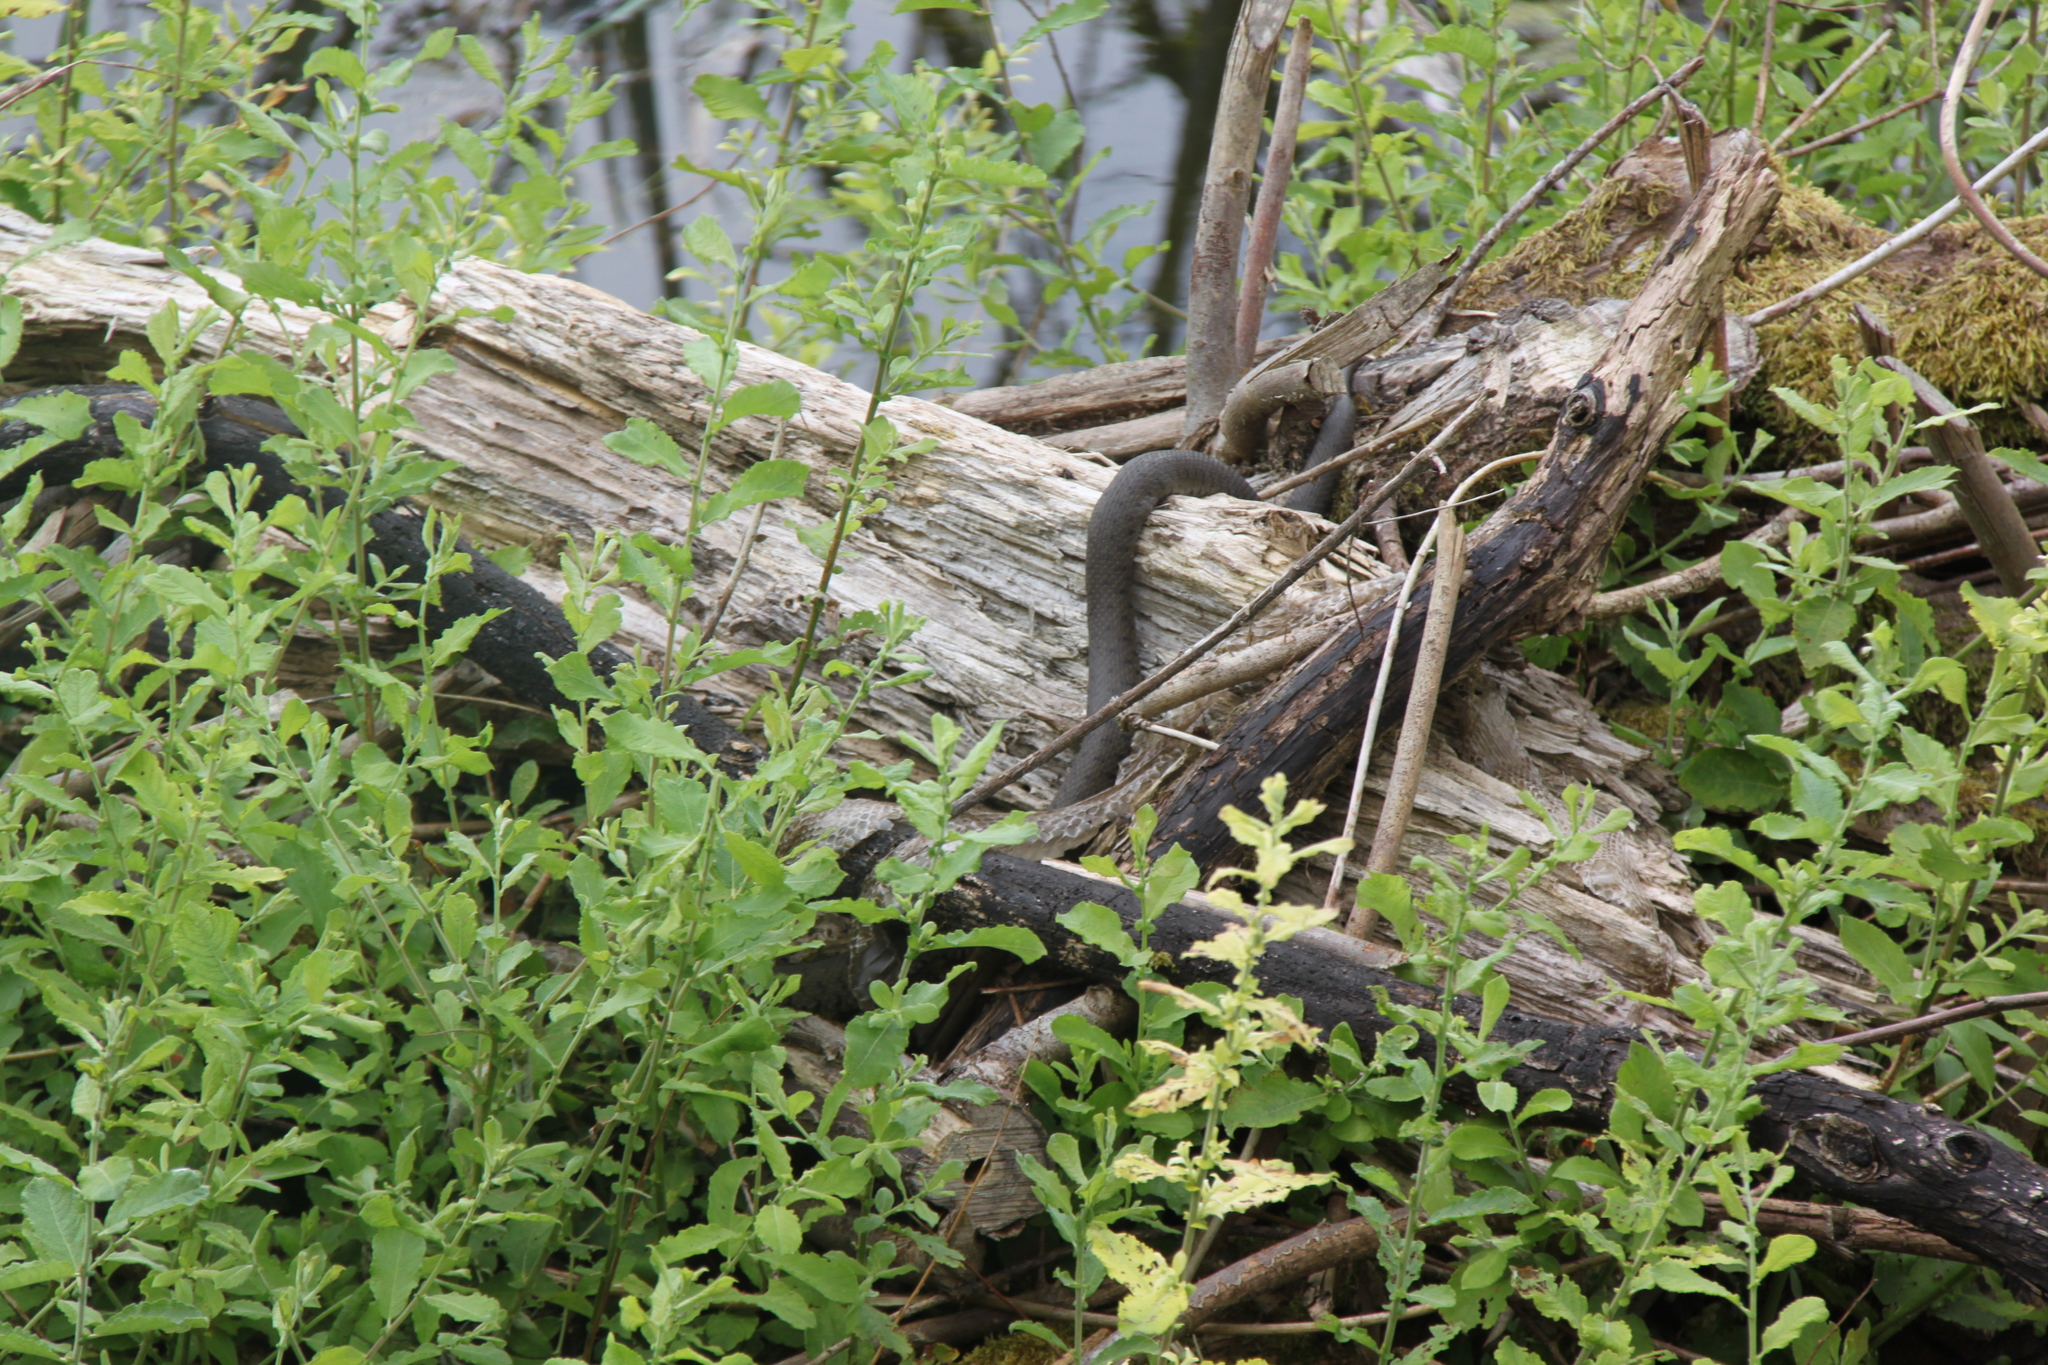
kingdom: Animalia
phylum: Chordata
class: Squamata
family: Colubridae
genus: Natrix
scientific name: Natrix helvetica
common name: Banded grass snake
